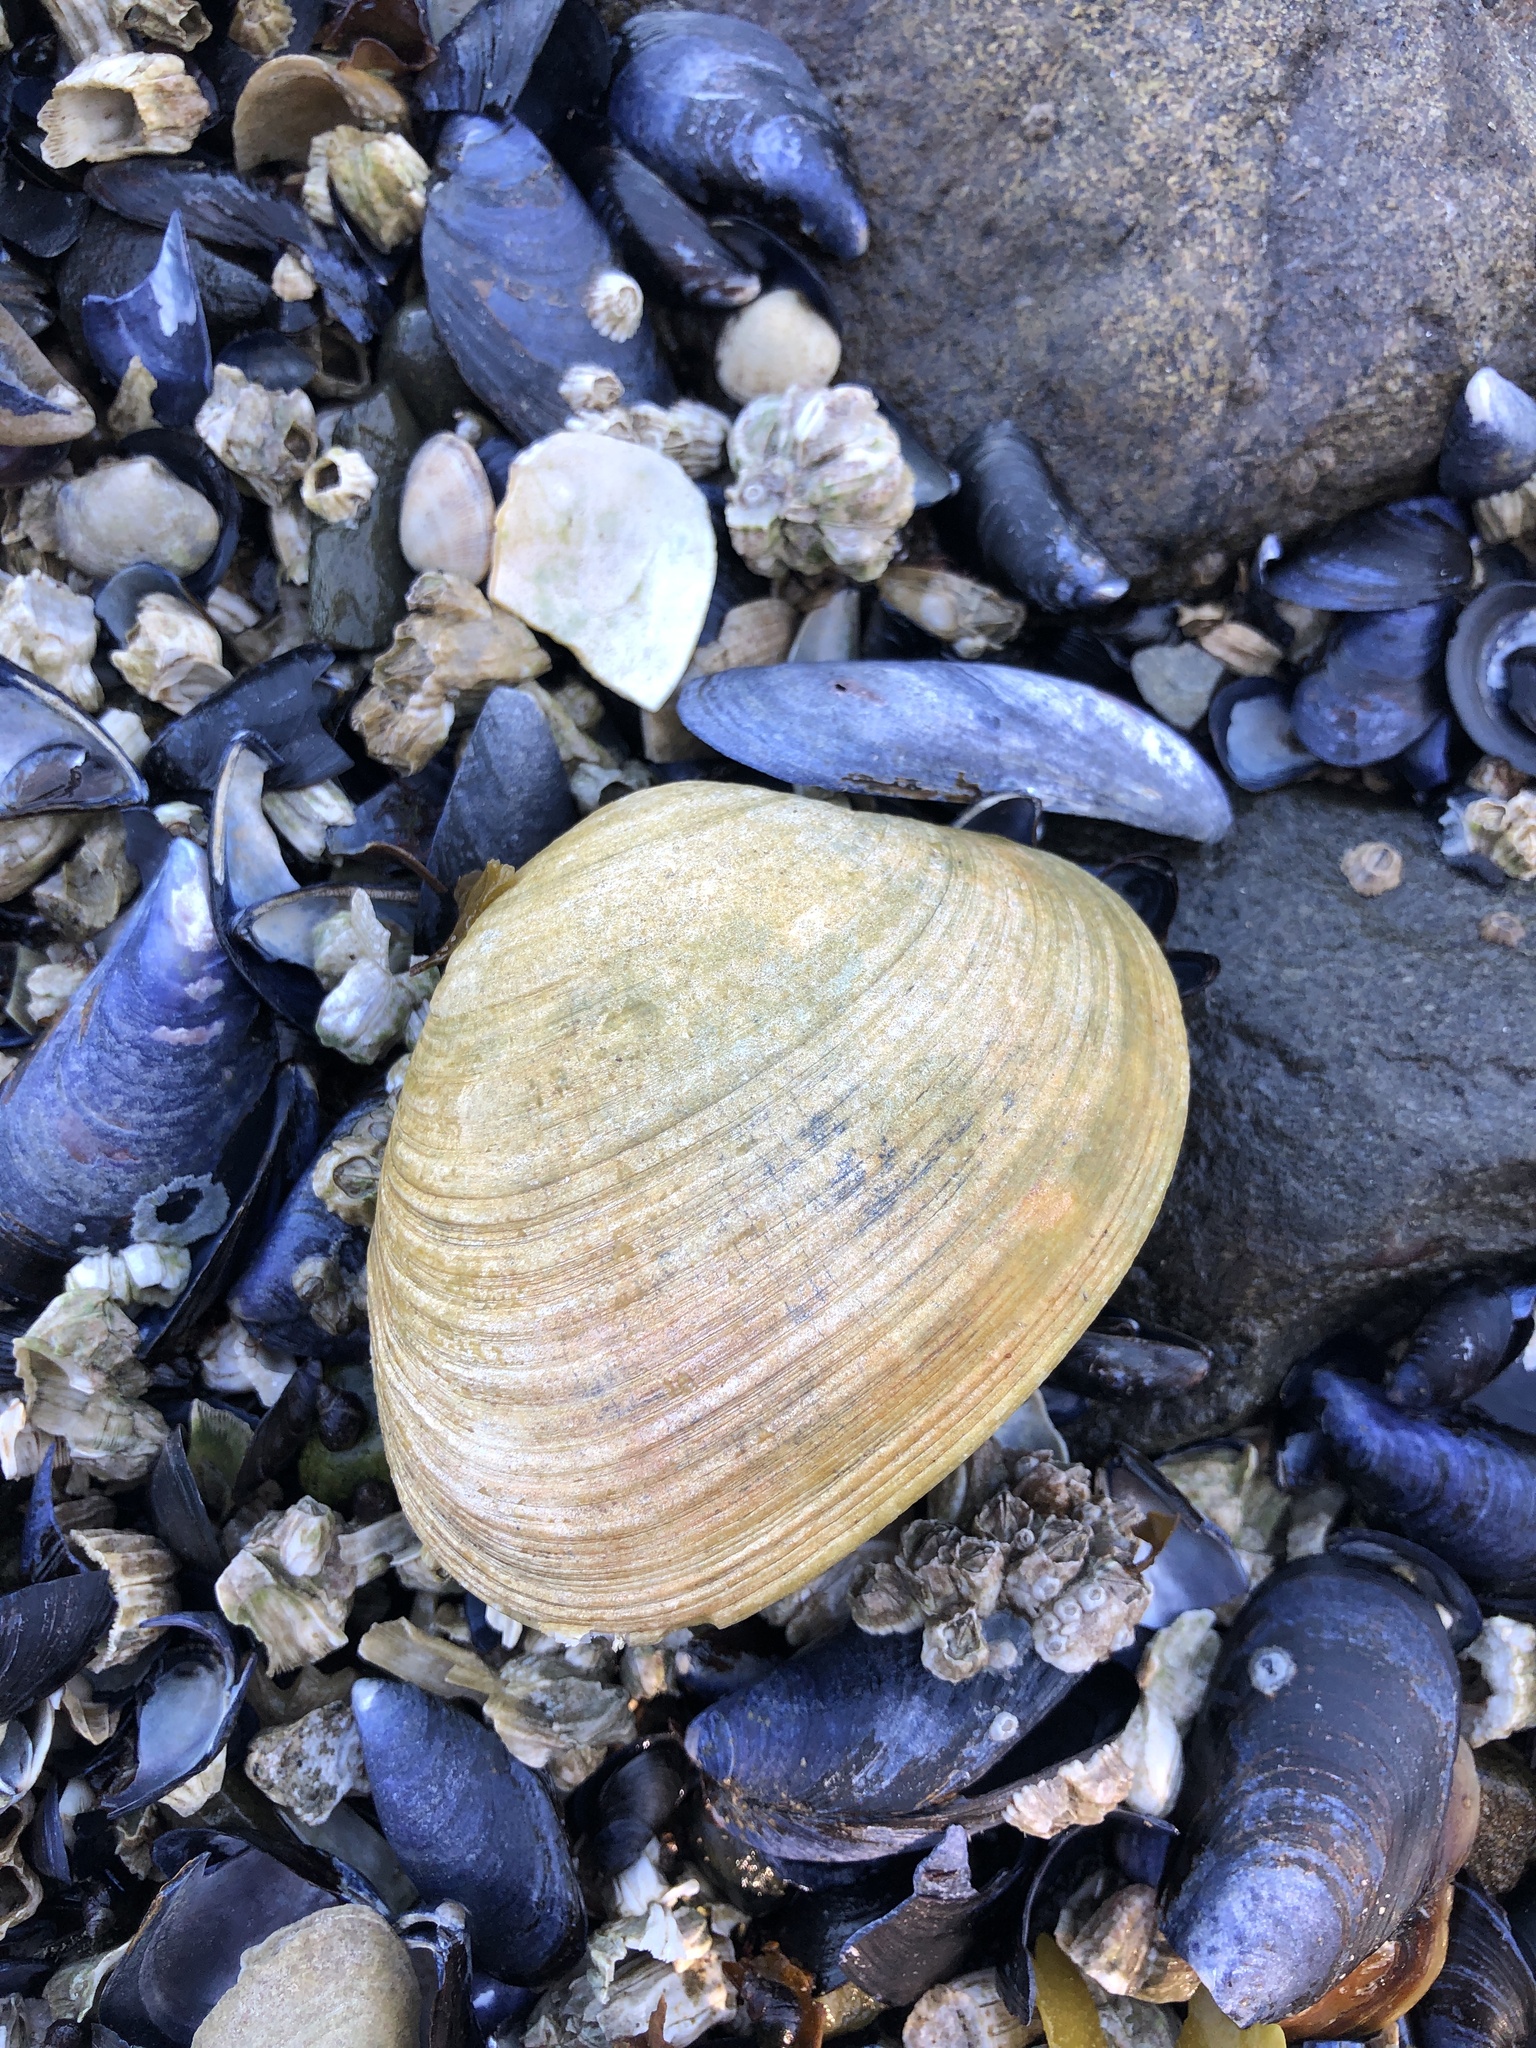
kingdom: Animalia
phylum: Mollusca
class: Bivalvia
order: Venerida
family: Veneridae
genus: Saxidomus
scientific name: Saxidomus gigantea
